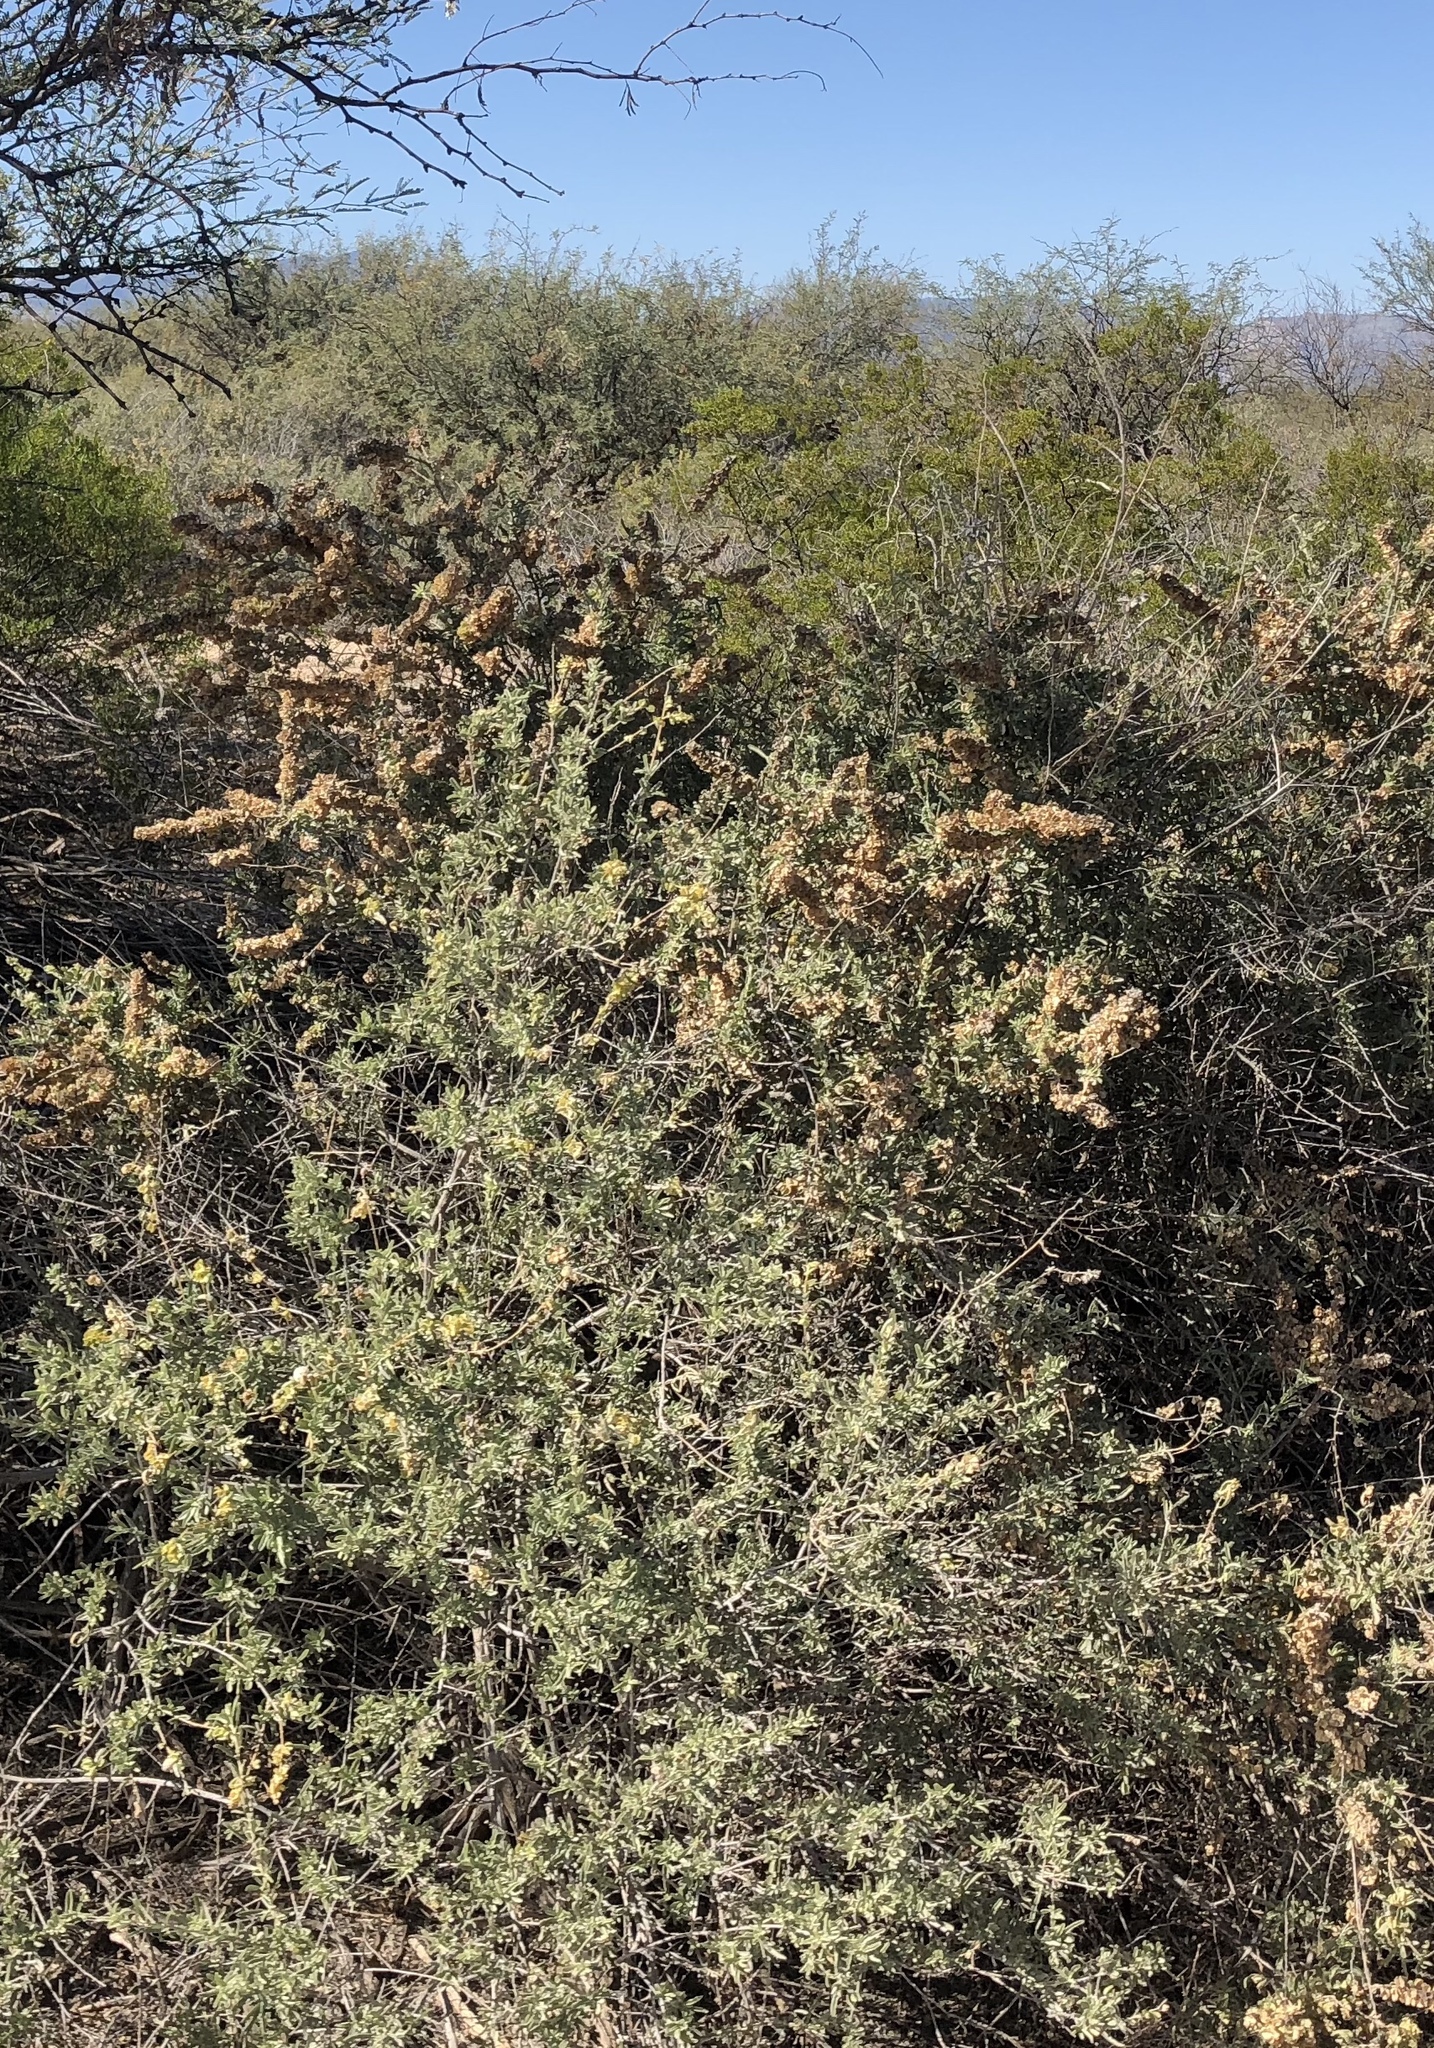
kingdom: Plantae
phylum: Tracheophyta
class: Magnoliopsida
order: Caryophyllales
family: Amaranthaceae
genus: Atriplex
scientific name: Atriplex canescens
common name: Four-wing saltbush
